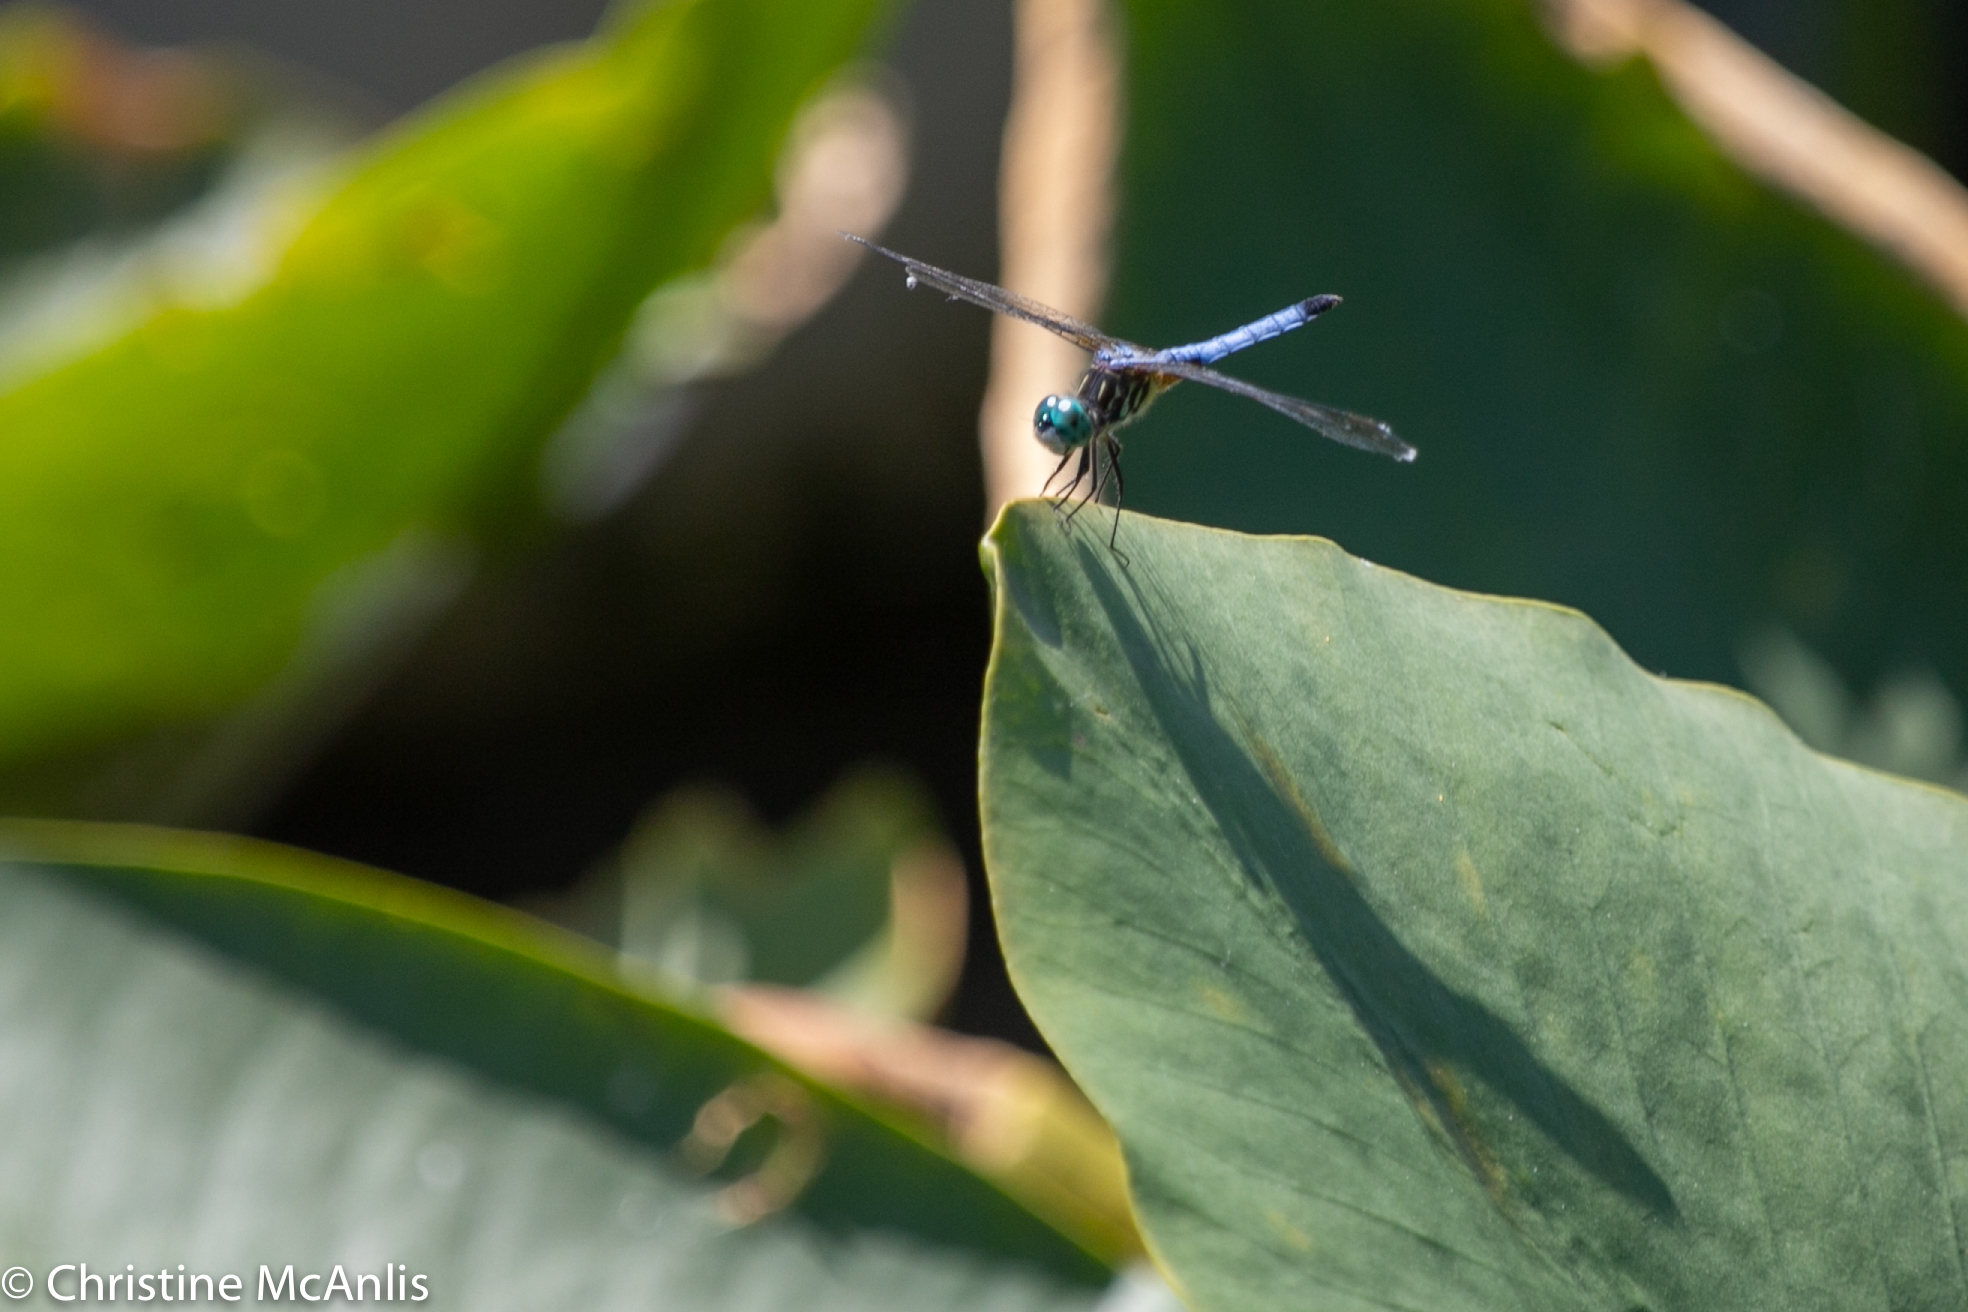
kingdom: Animalia
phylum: Arthropoda
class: Insecta
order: Odonata
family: Libellulidae
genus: Pachydiplax
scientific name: Pachydiplax longipennis
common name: Blue dasher
